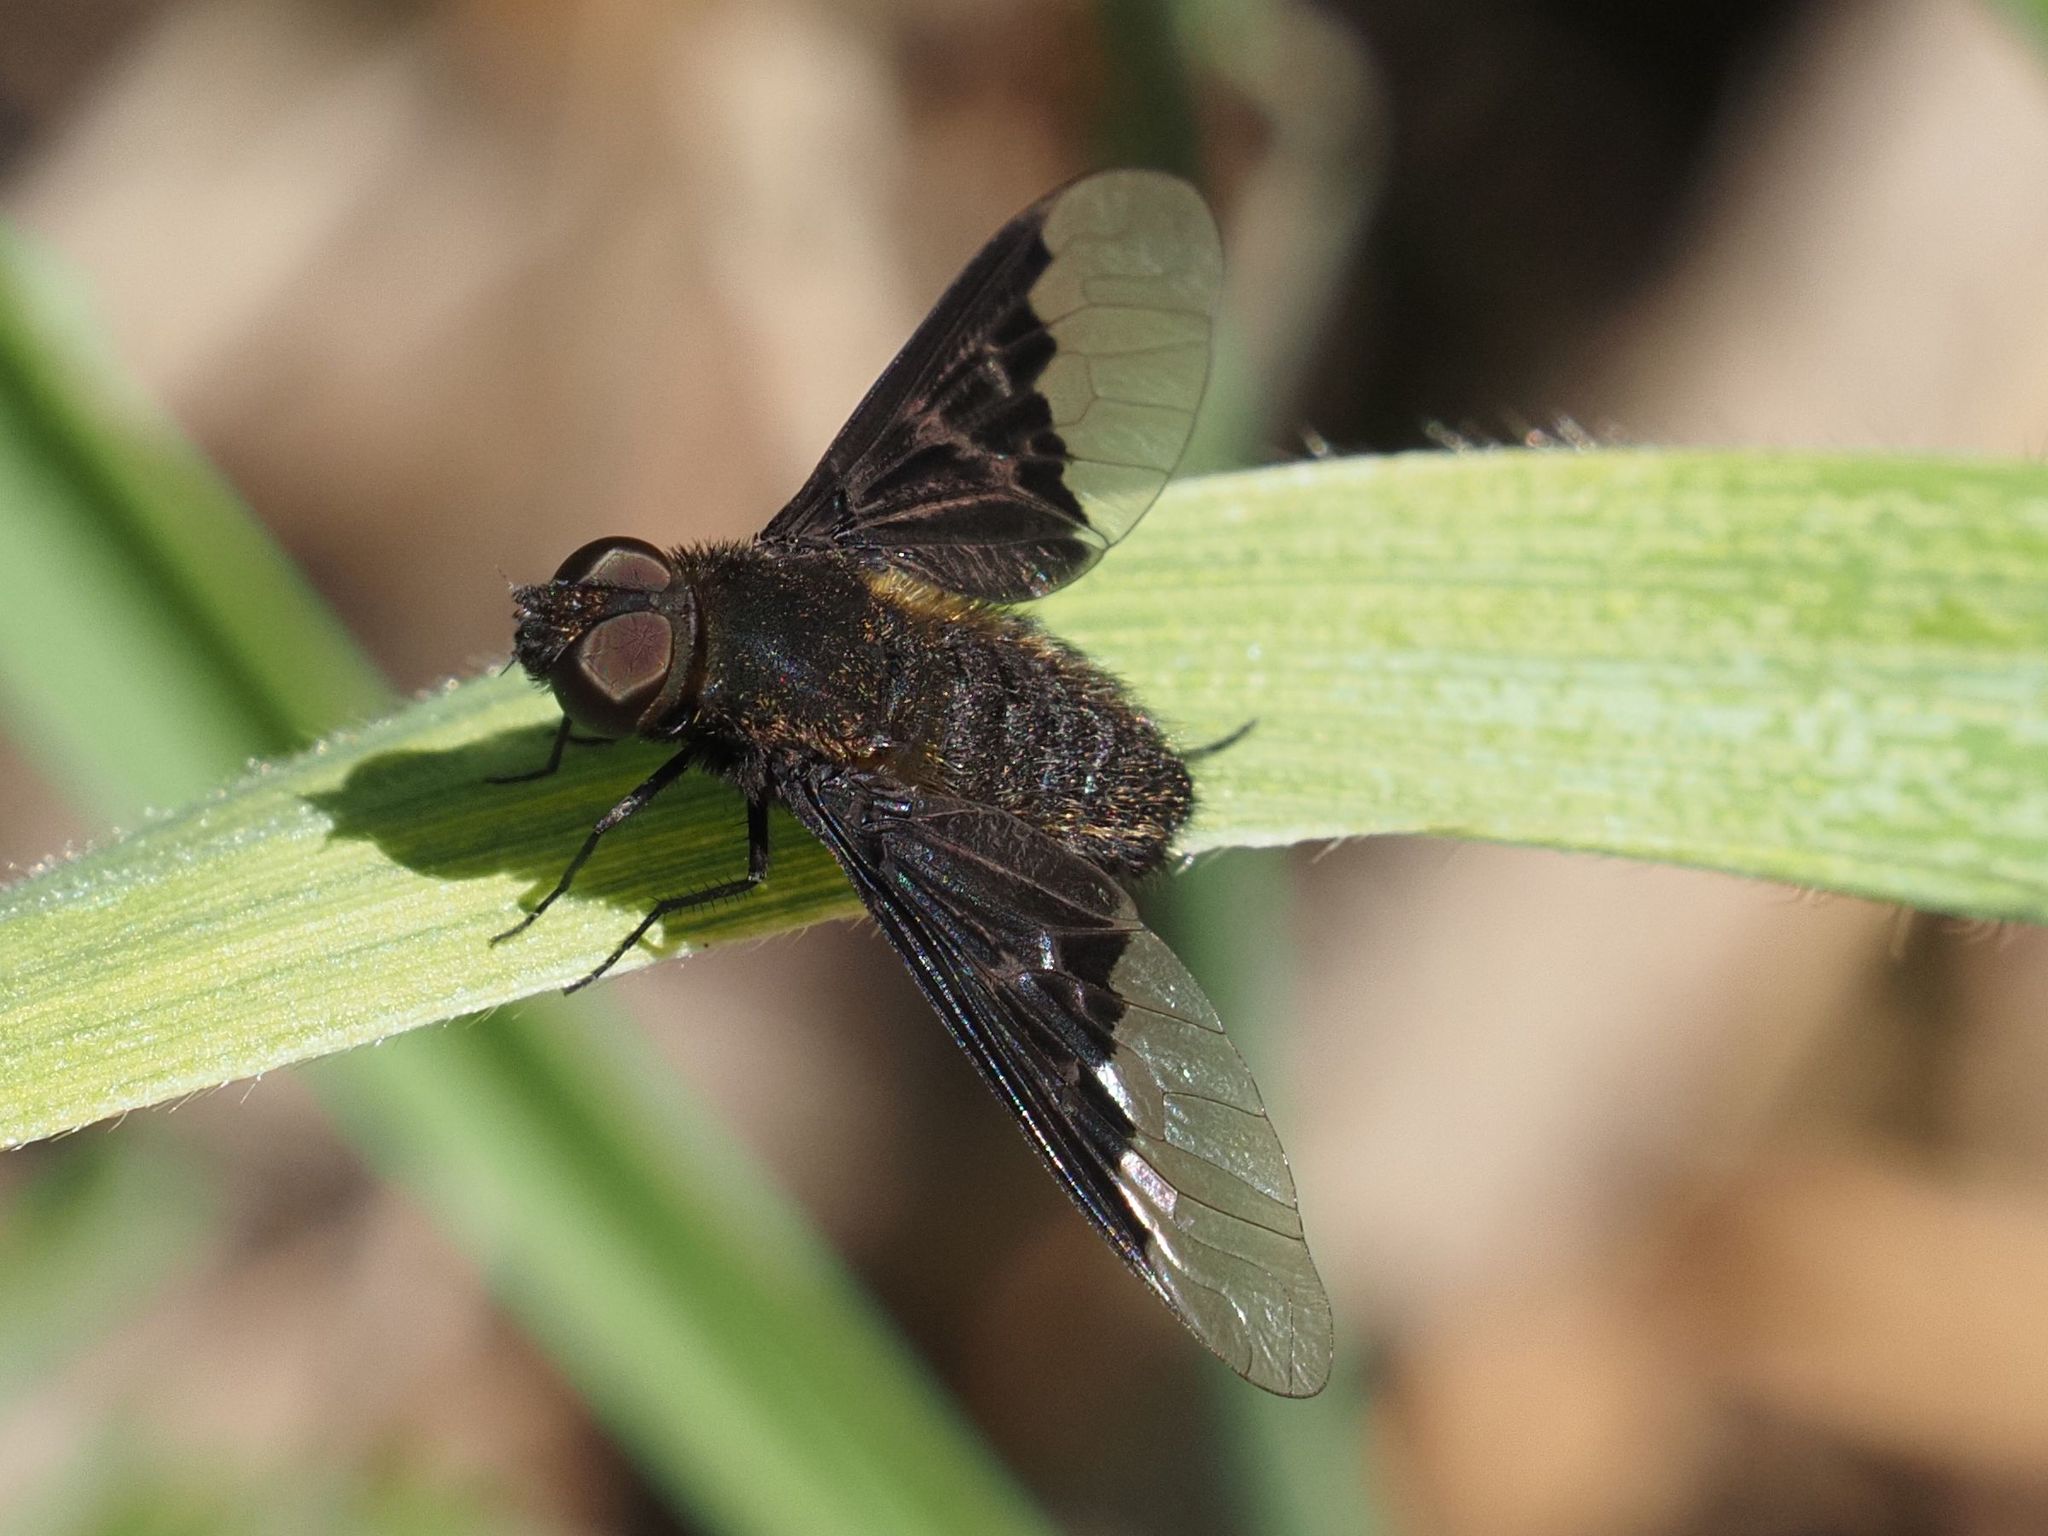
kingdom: Animalia
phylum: Arthropoda
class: Insecta
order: Diptera
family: Bombyliidae
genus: Hemipenthes
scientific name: Hemipenthes morio
